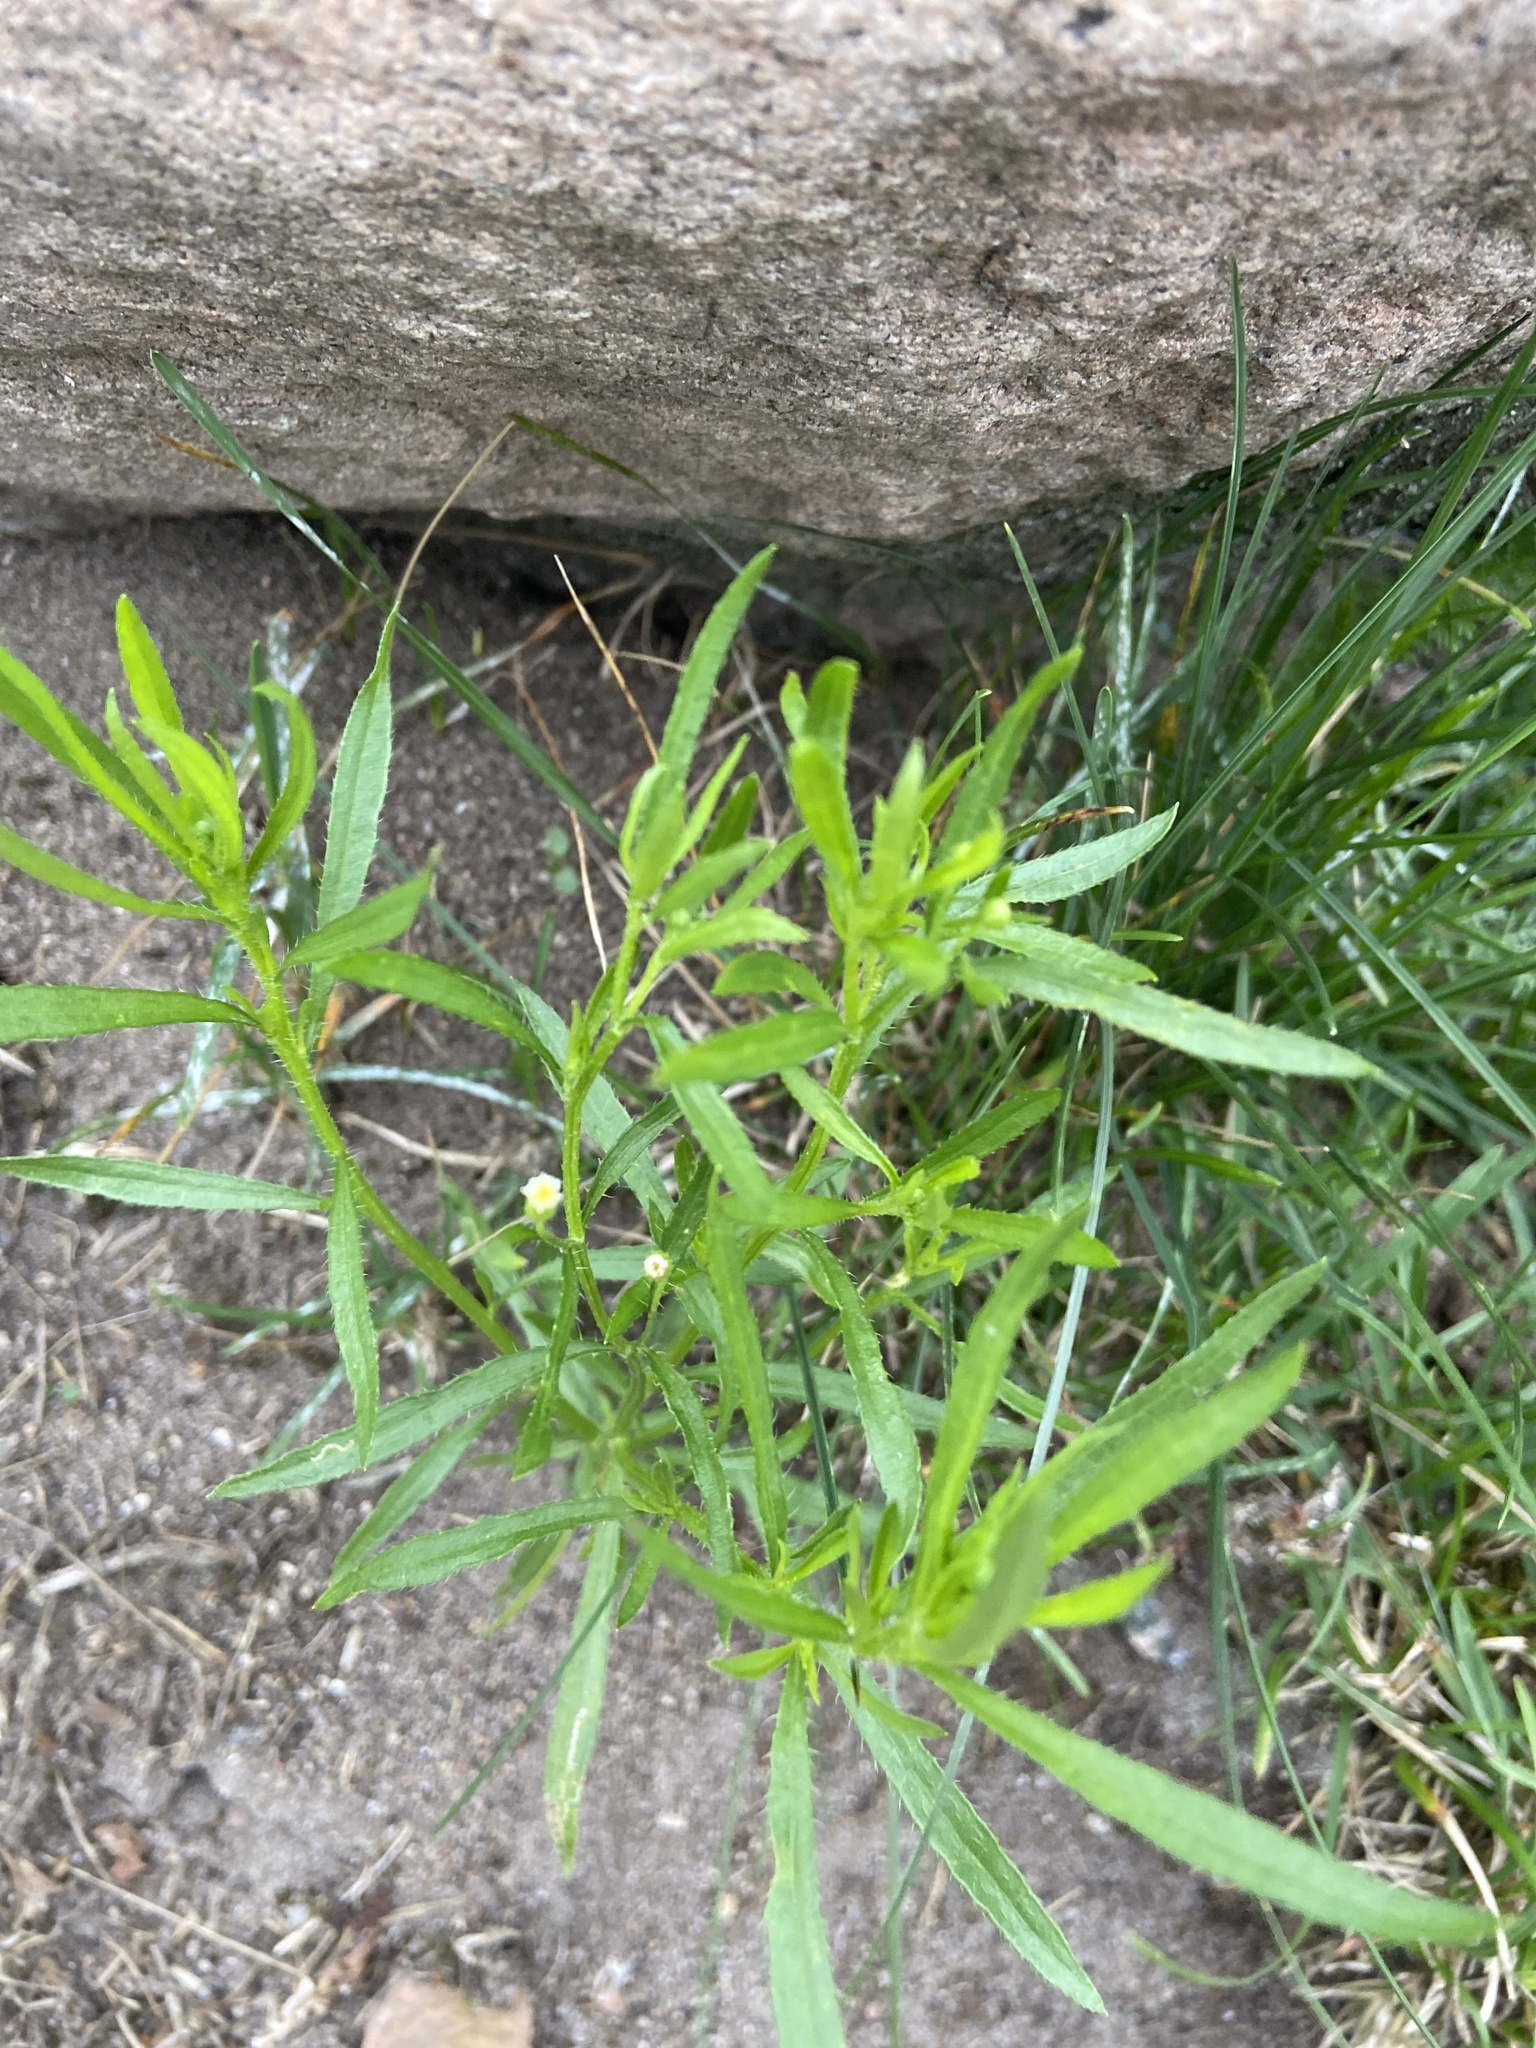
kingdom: Plantae
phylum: Tracheophyta
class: Magnoliopsida
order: Asterales
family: Asteraceae
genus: Erigeron
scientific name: Erigeron canadensis
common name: Canadian fleabane
